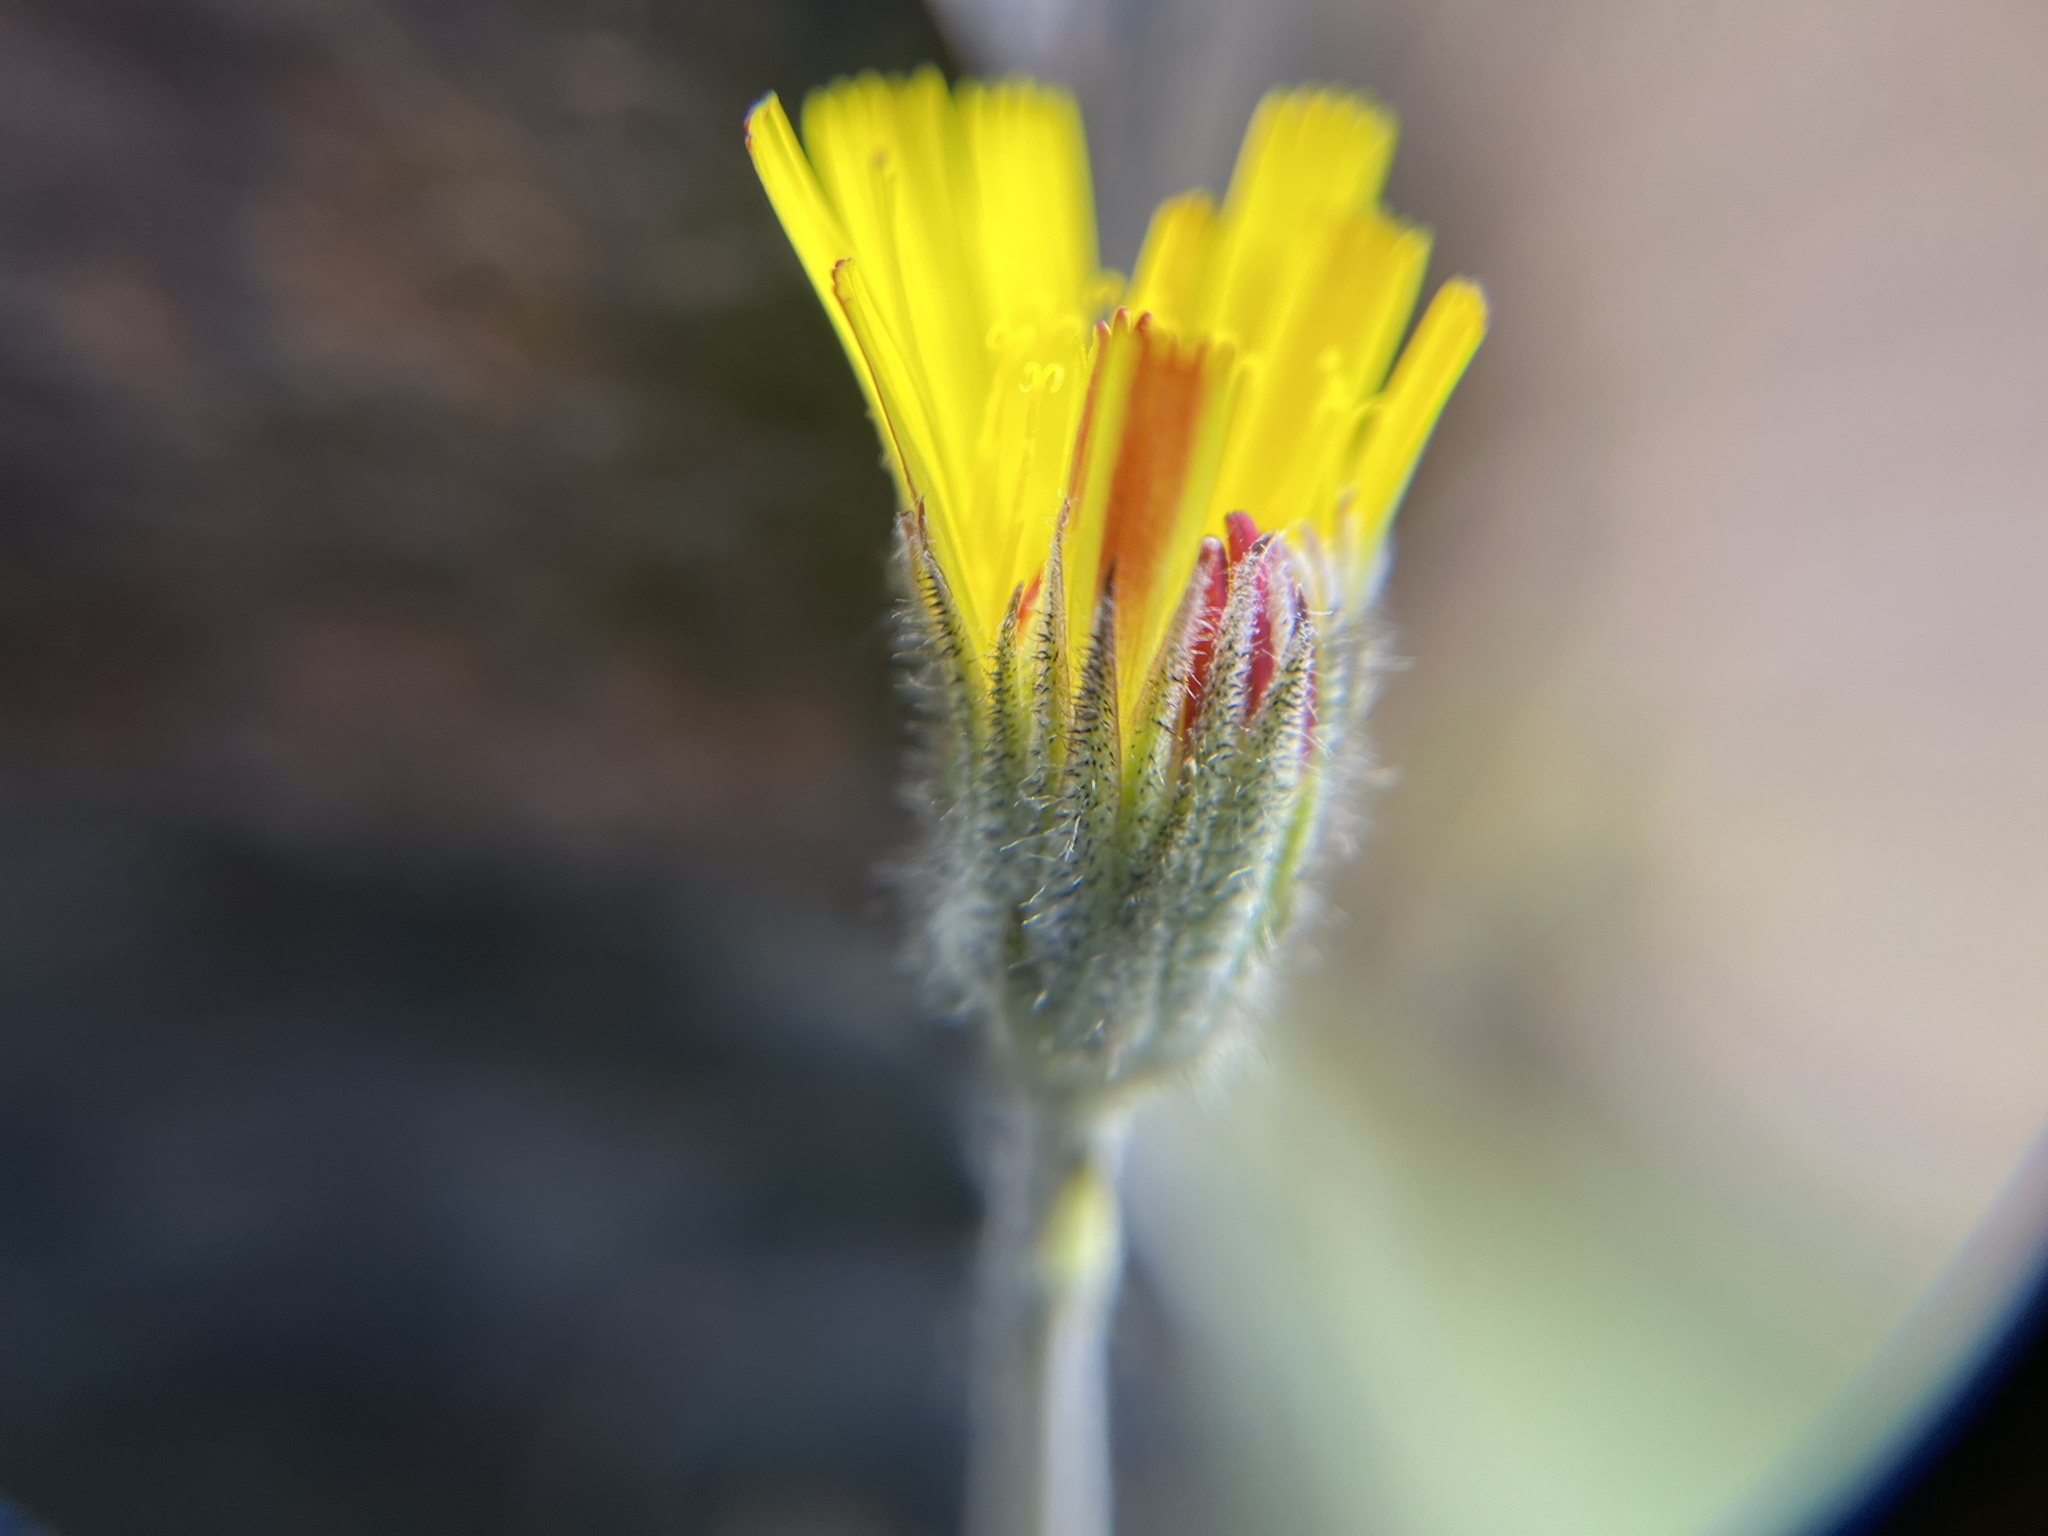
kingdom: Plantae
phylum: Tracheophyta
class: Magnoliopsida
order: Asterales
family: Asteraceae
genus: Pilosella
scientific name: Pilosella officinarum
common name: Mouse-ear hawkweed
